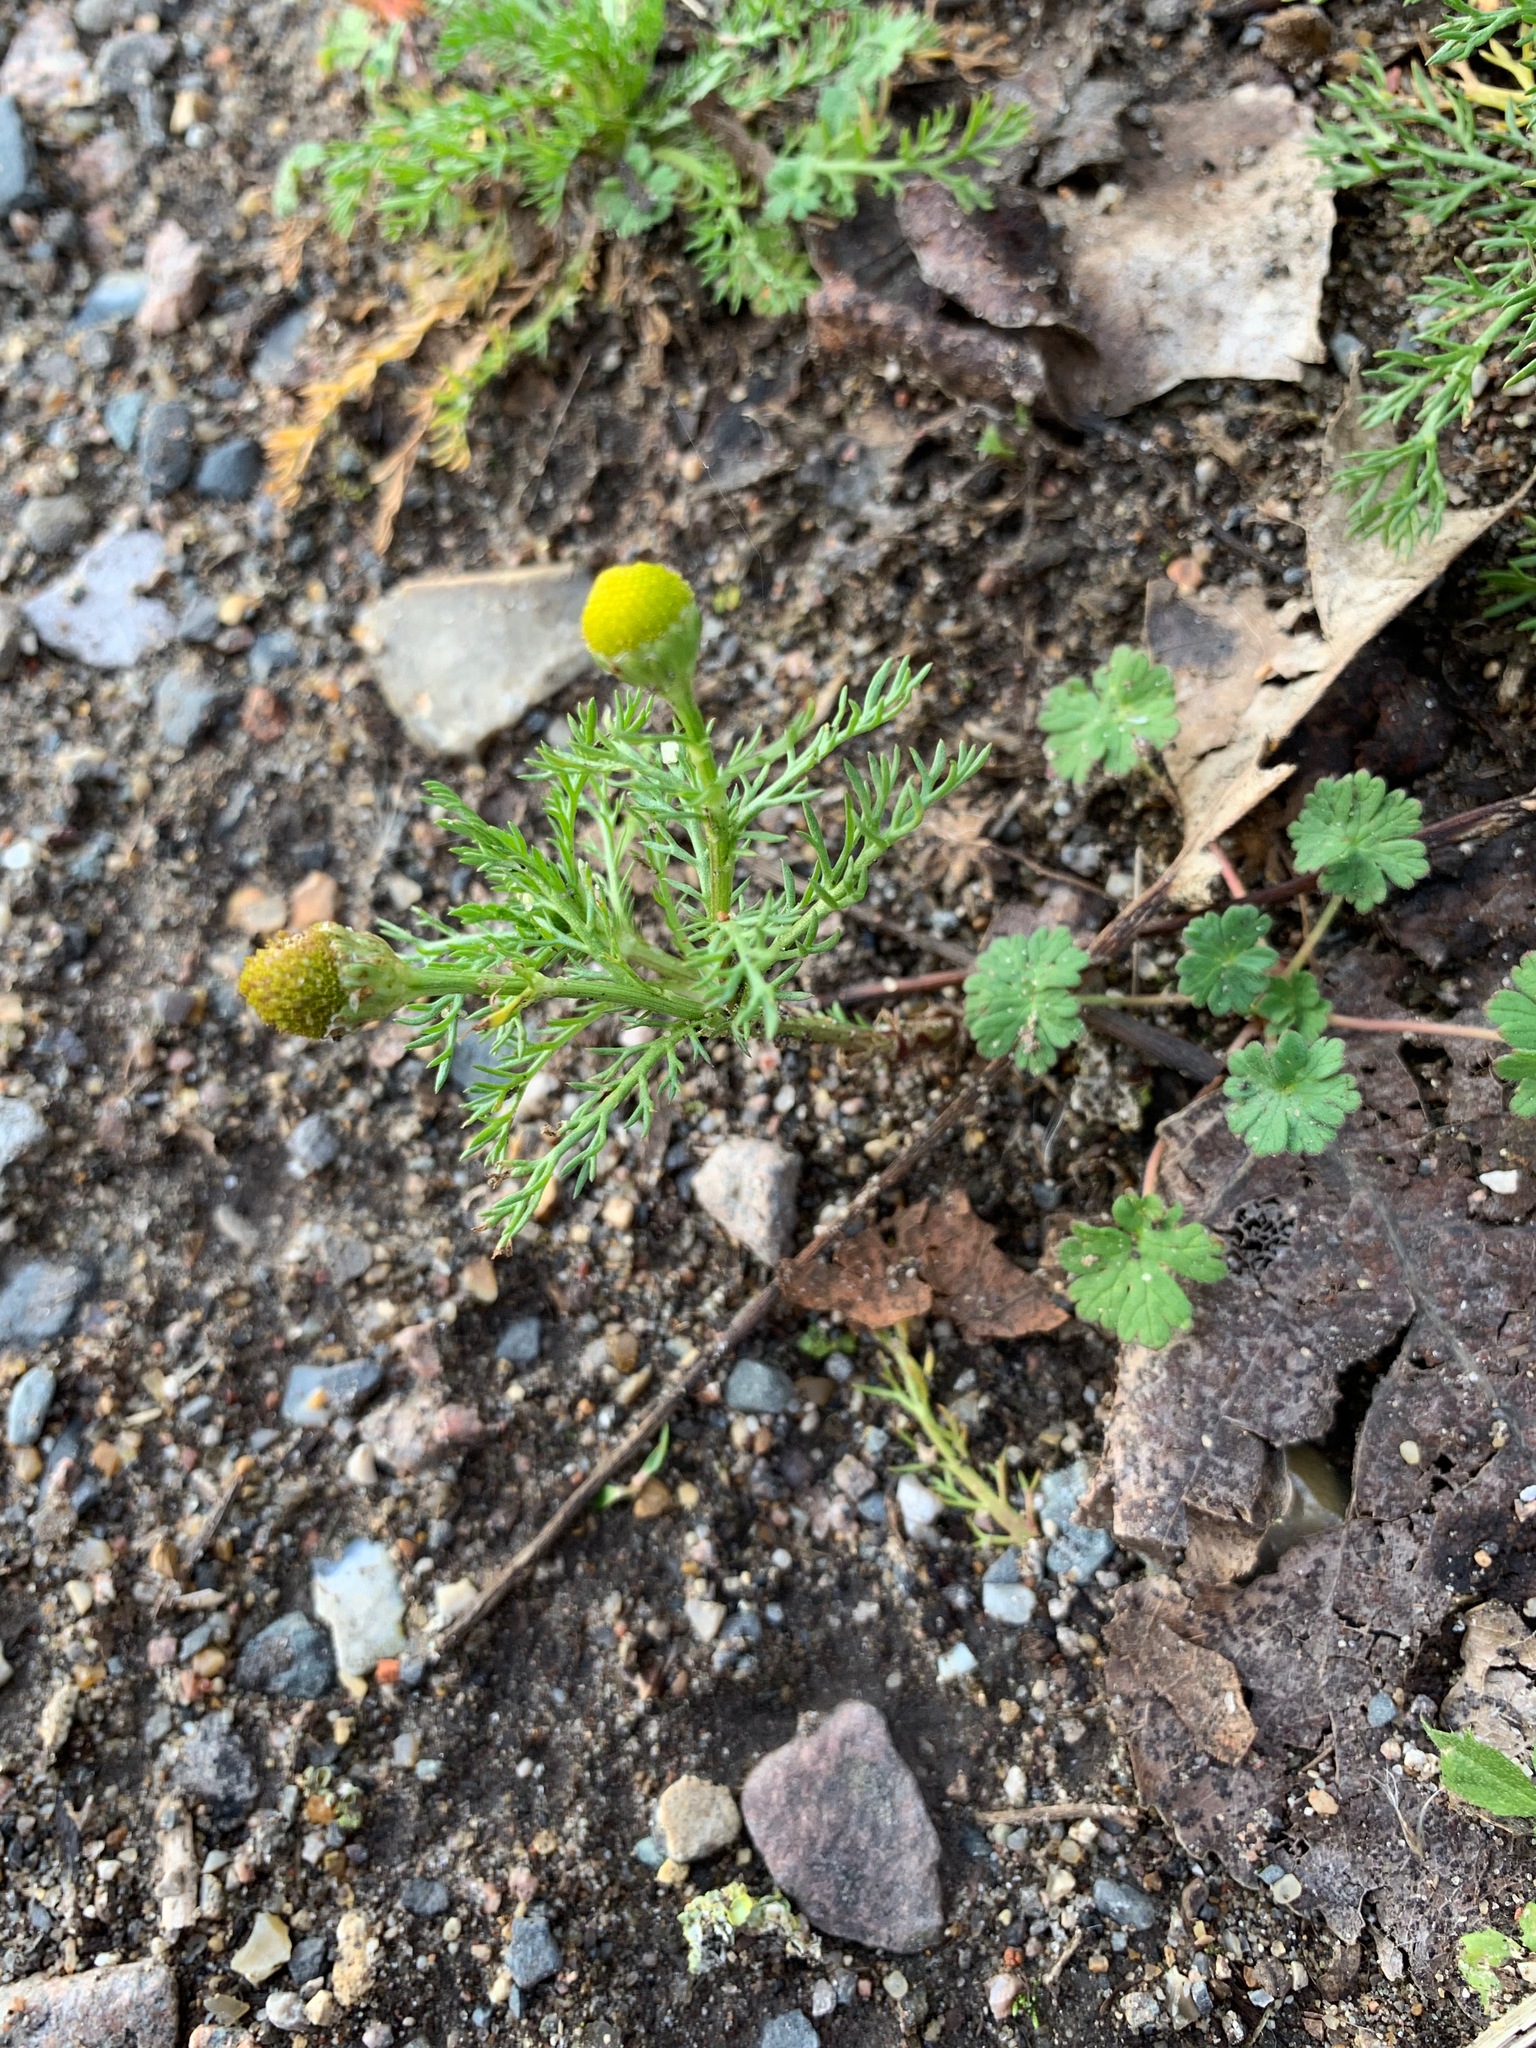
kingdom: Plantae
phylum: Tracheophyta
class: Magnoliopsida
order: Asterales
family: Asteraceae
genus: Matricaria
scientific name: Matricaria discoidea
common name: Disc mayweed
